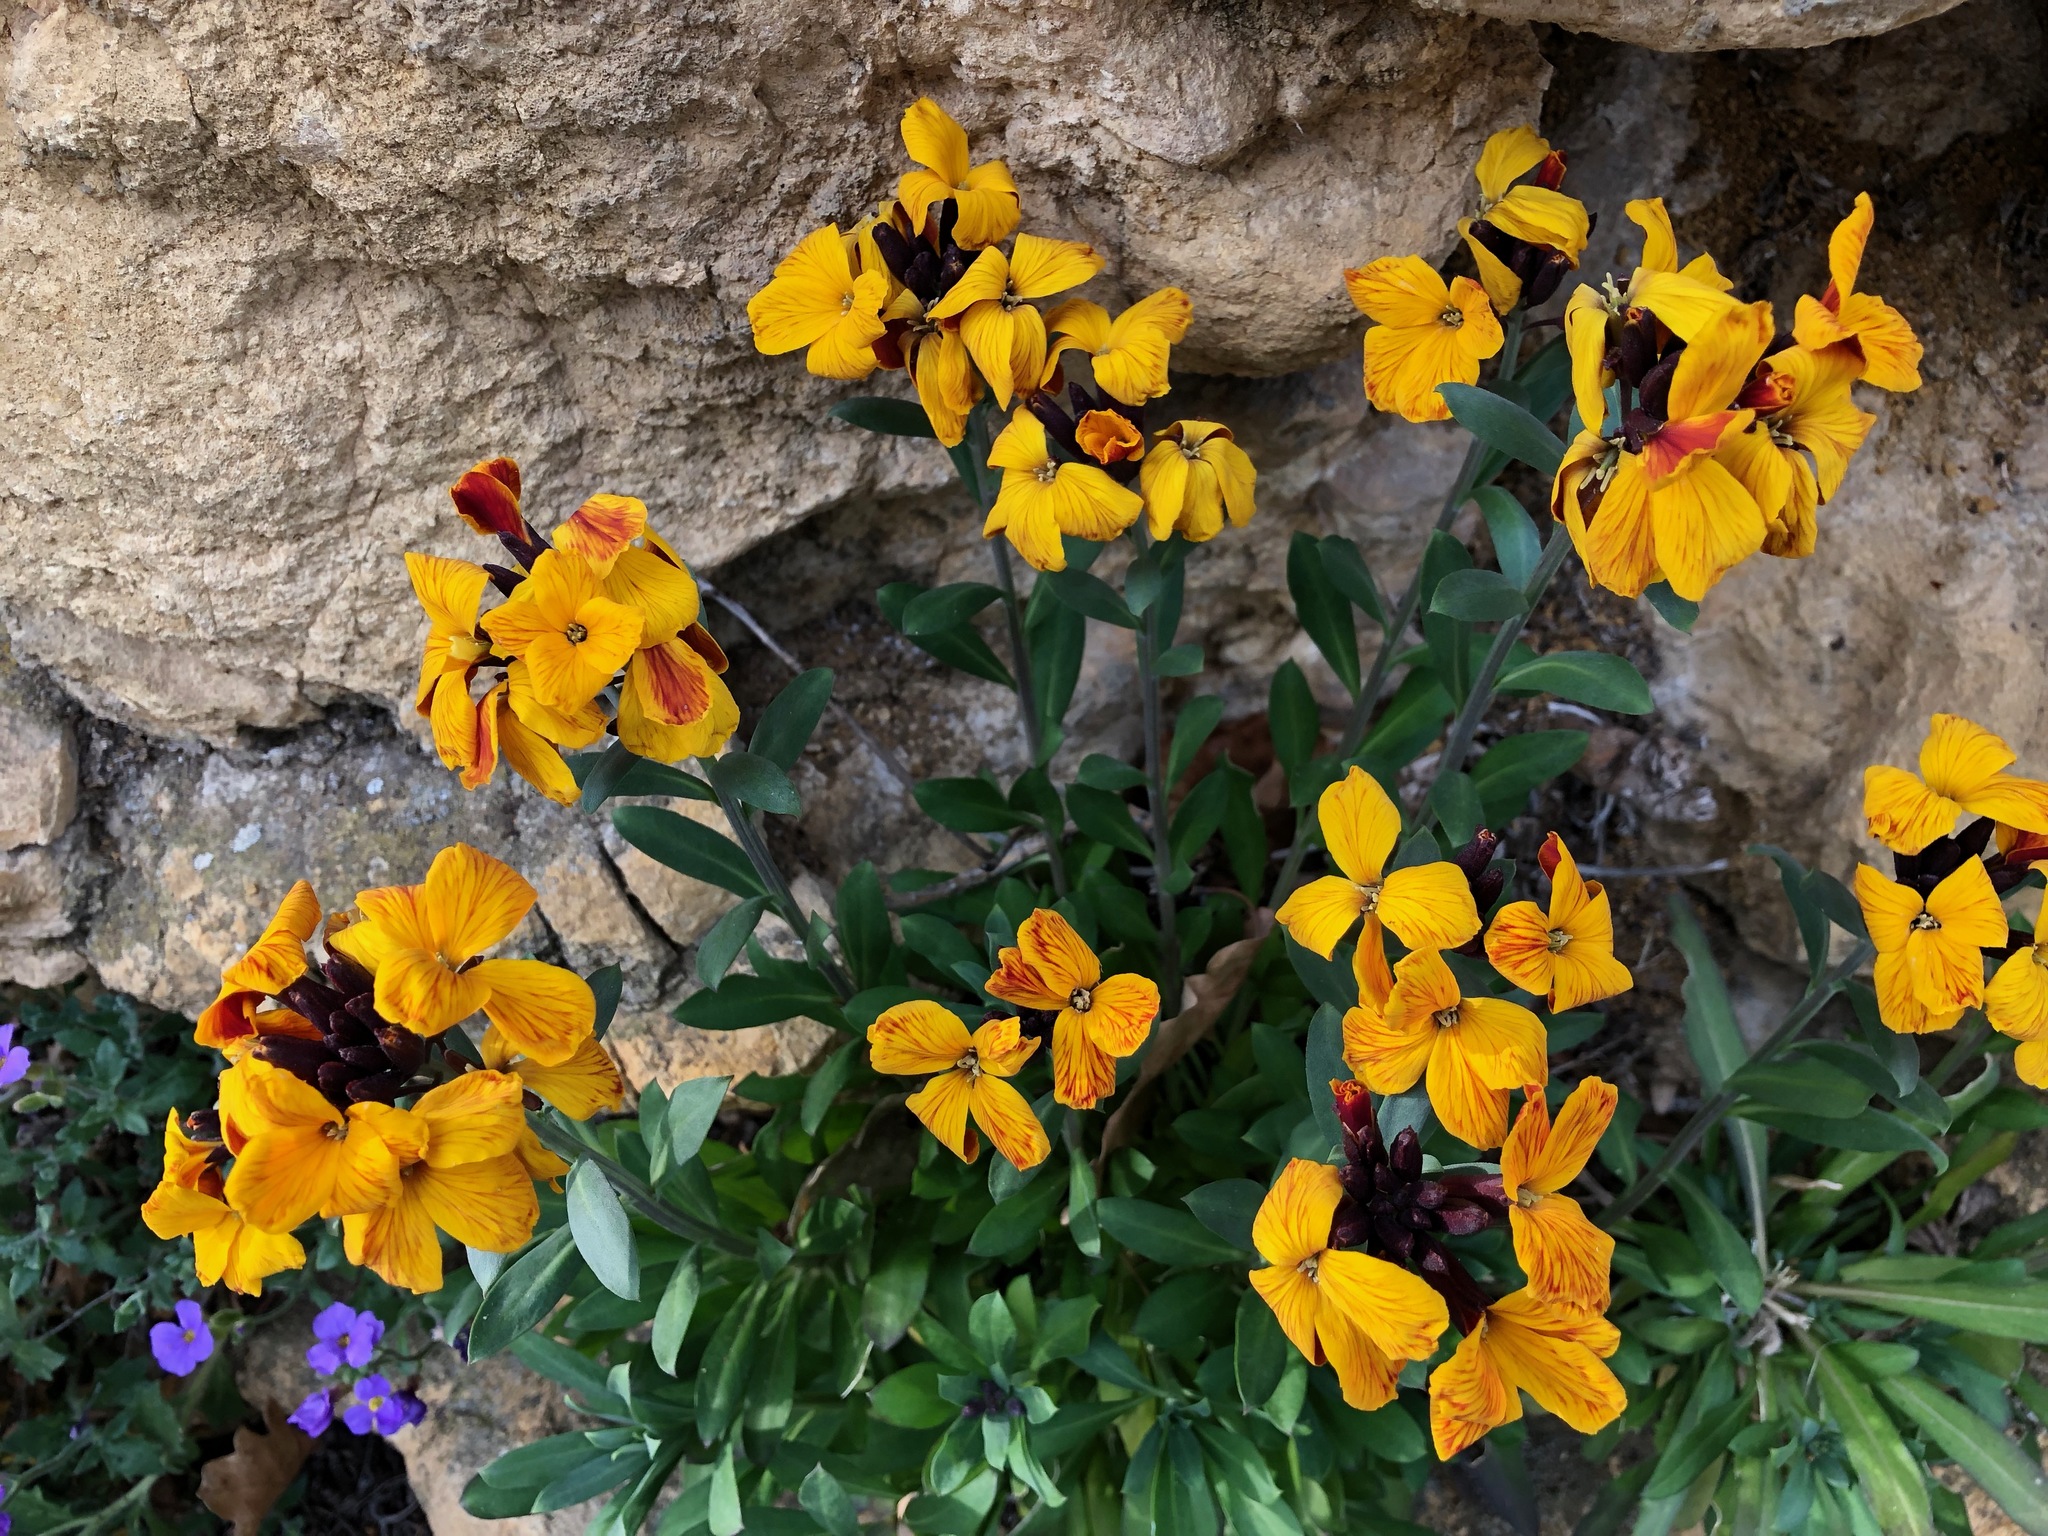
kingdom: Plantae
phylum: Tracheophyta
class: Magnoliopsida
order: Brassicales
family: Brassicaceae
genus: Erysimum
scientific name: Erysimum cheiri
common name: Wallflower
